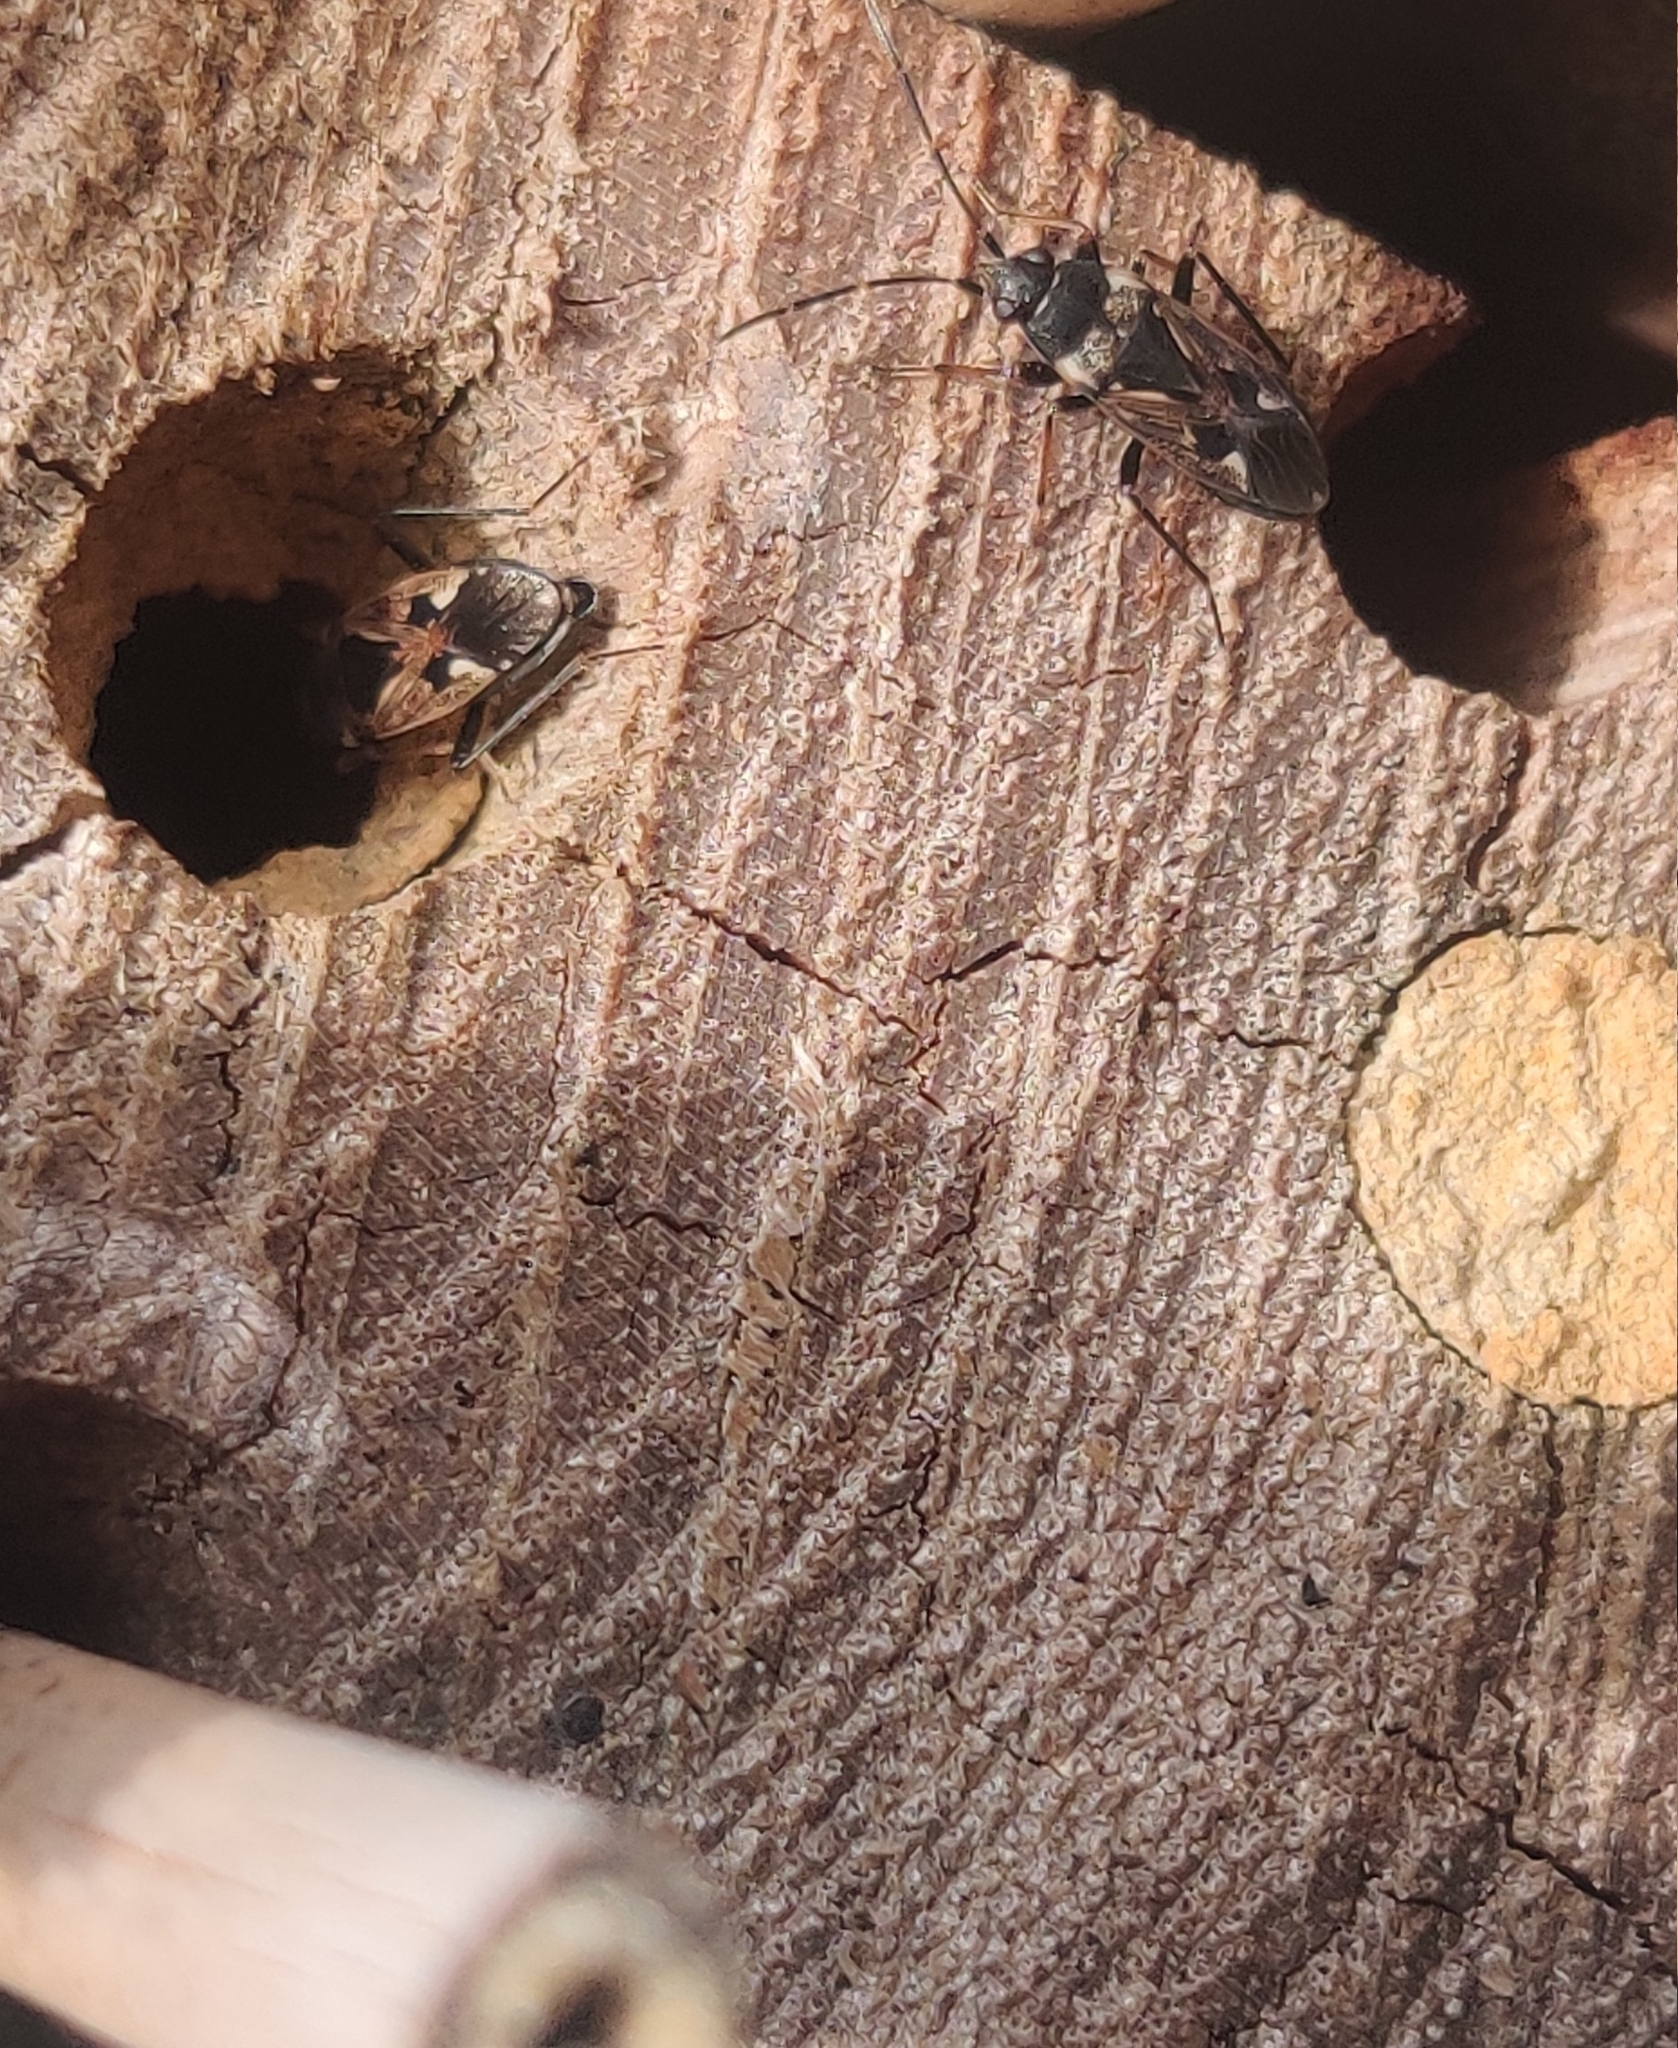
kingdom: Animalia
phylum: Arthropoda
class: Insecta
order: Hemiptera
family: Rhyparochromidae
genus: Rhyparochromus
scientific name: Rhyparochromus vulgaris
